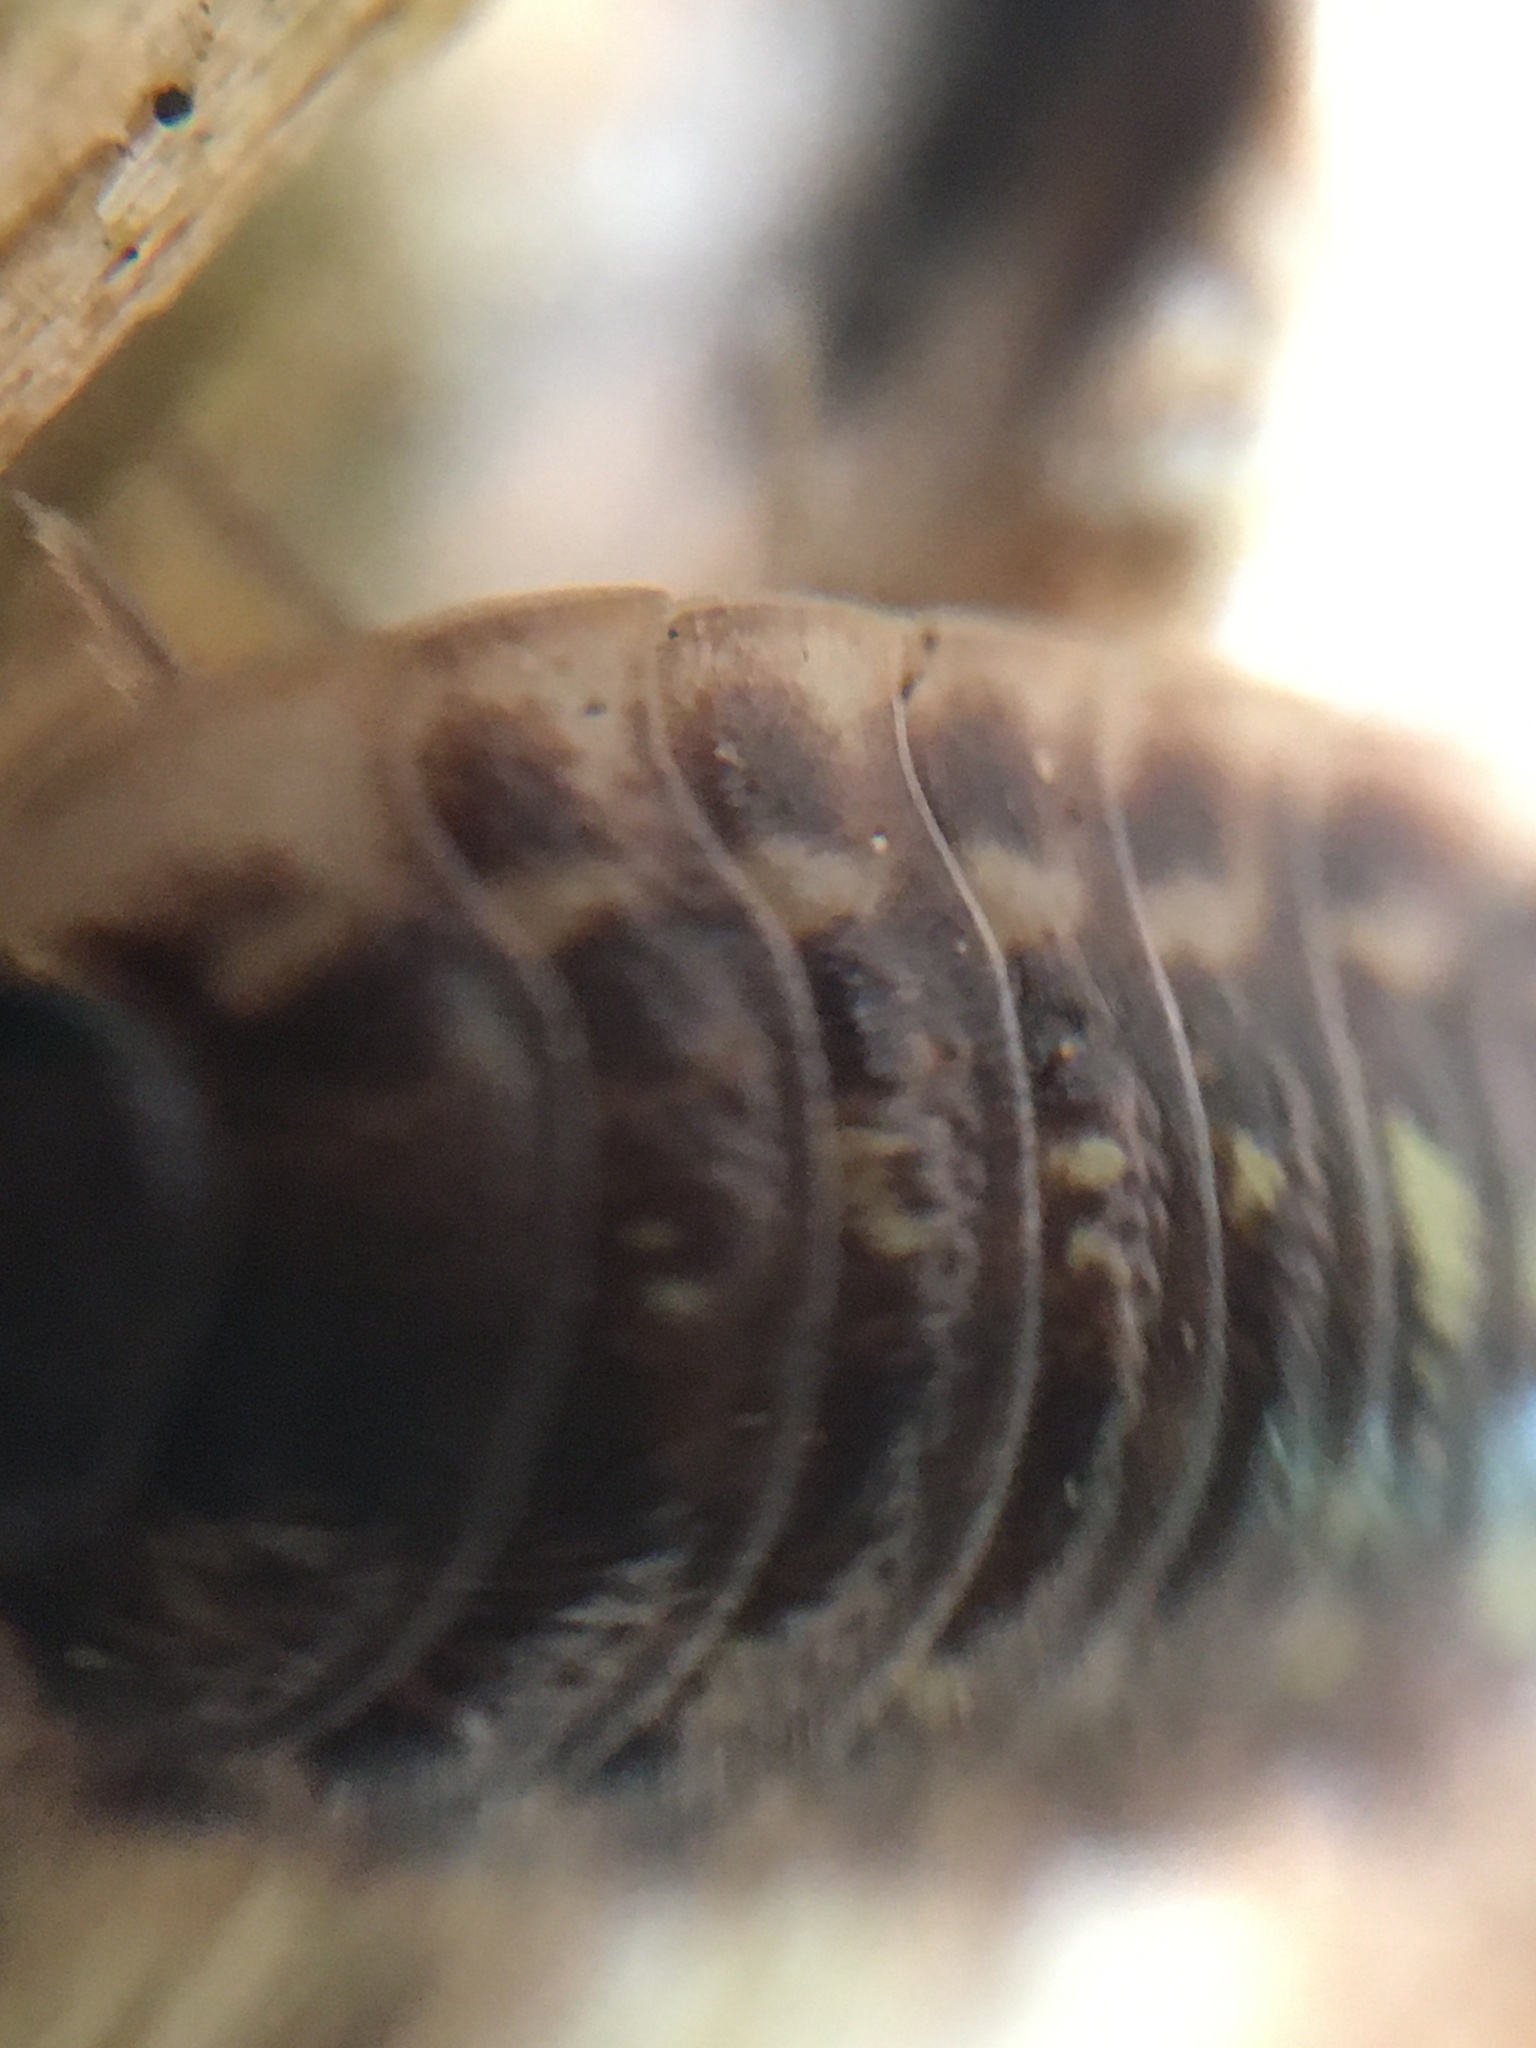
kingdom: Animalia
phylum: Arthropoda
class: Malacostraca
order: Isopoda
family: Oniscidae
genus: Oniscus
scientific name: Oniscus asellus
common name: Common shiny woodlouse
